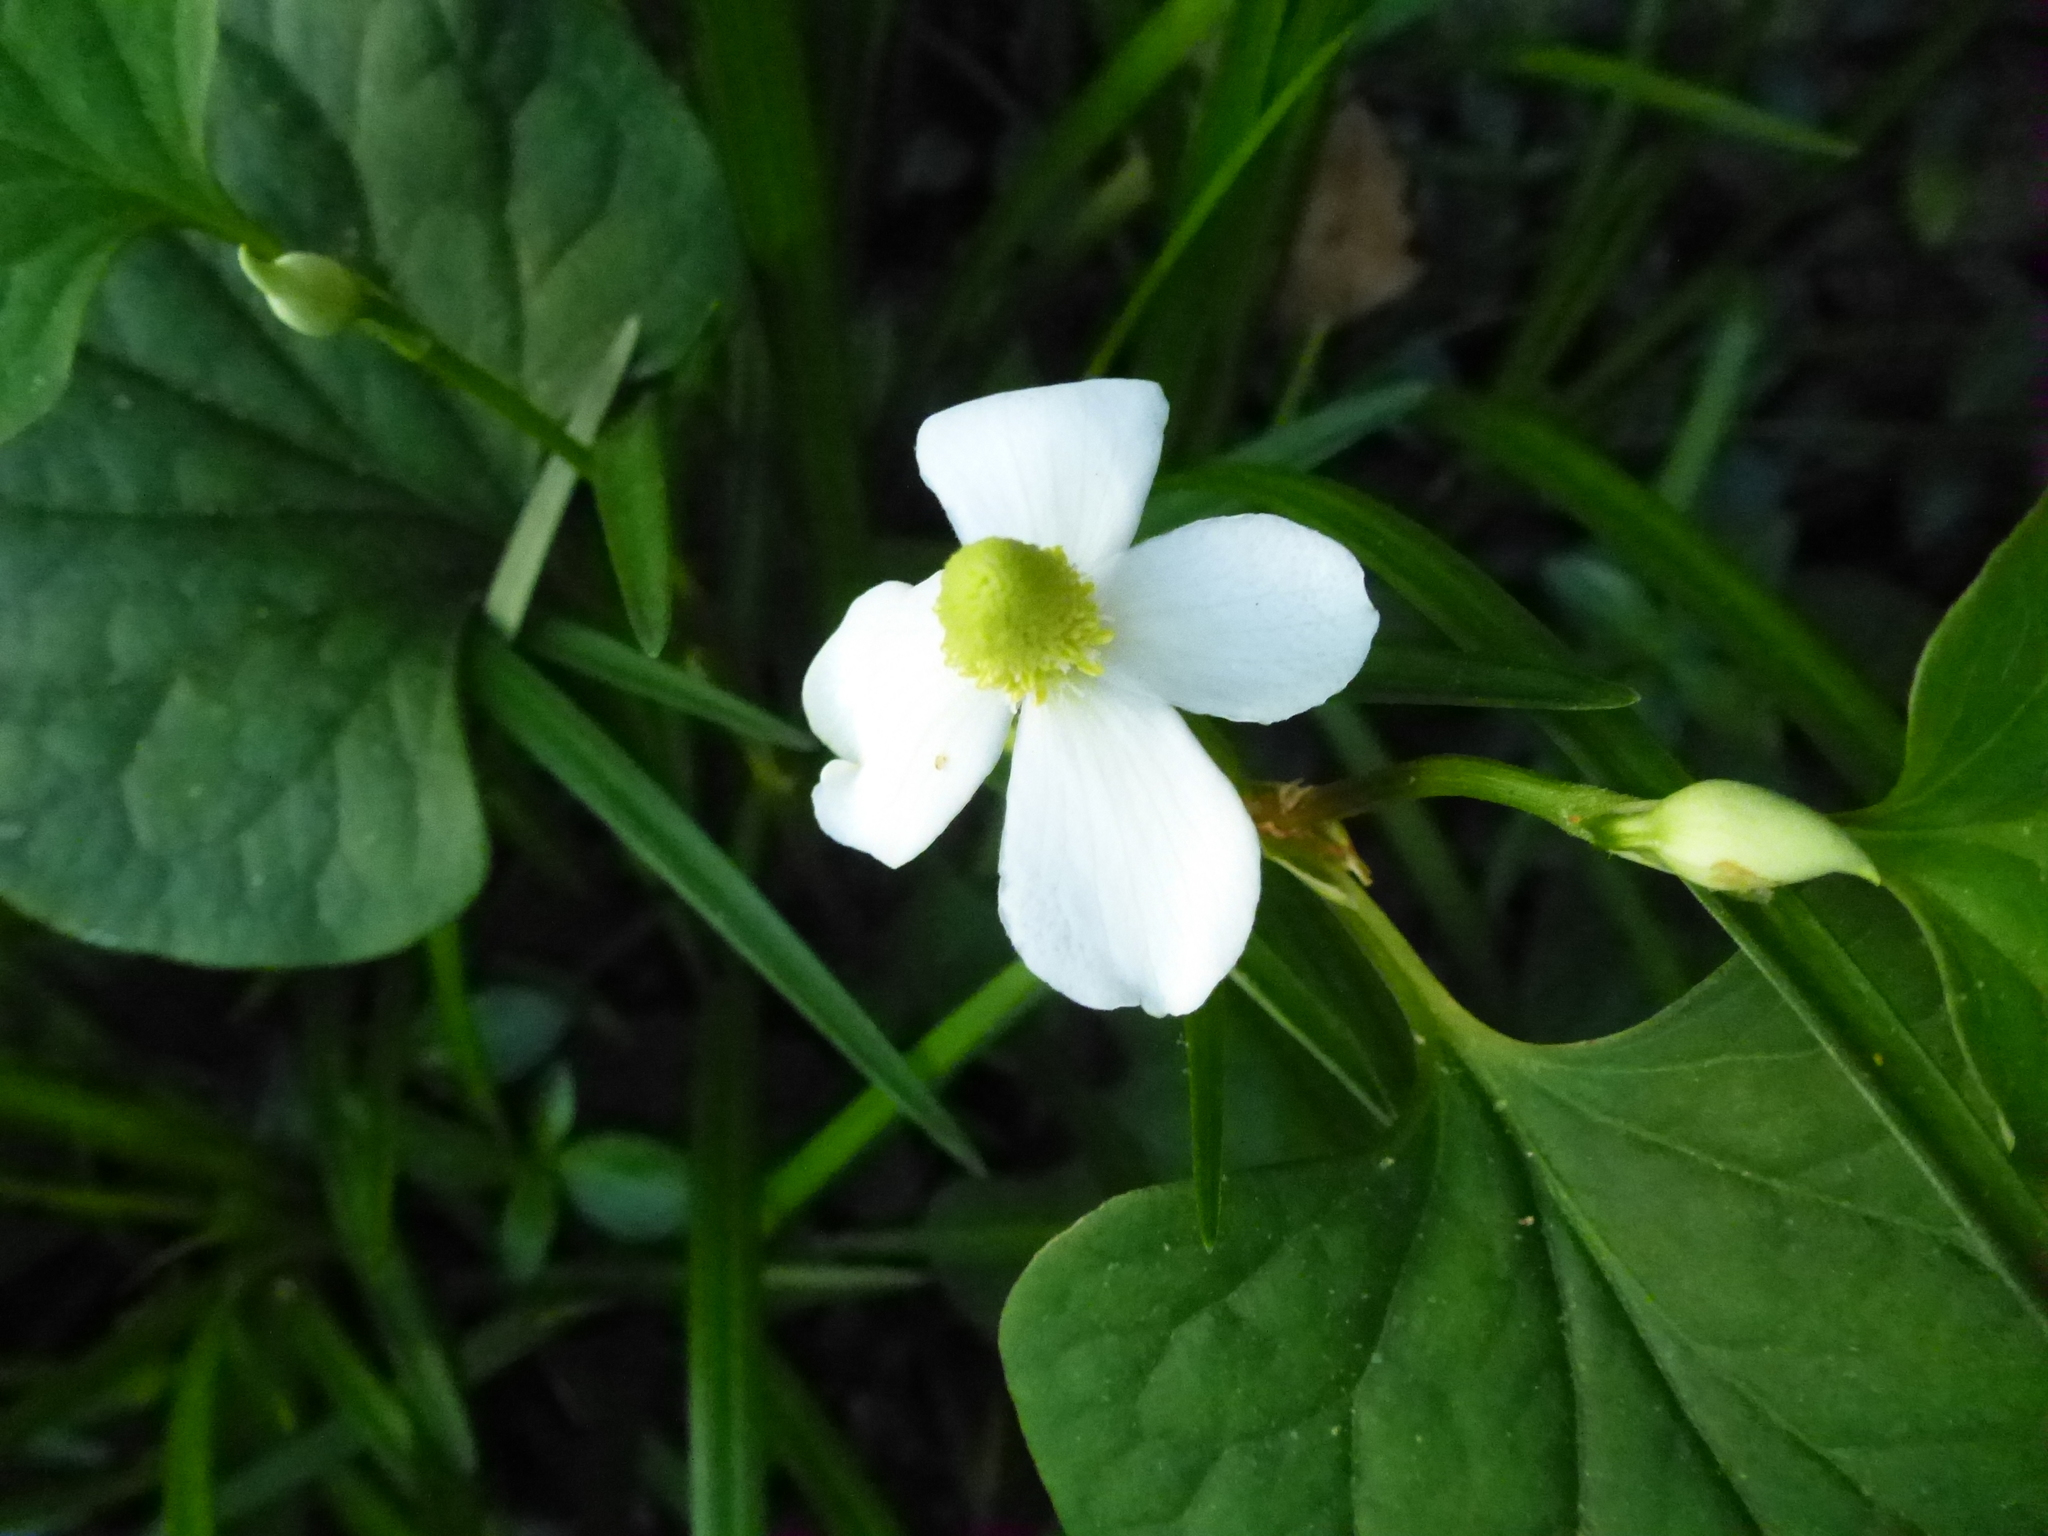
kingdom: Plantae
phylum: Tracheophyta
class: Magnoliopsida
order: Piperales
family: Saururaceae
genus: Houttuynia
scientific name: Houttuynia cordata
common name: Chameleon
